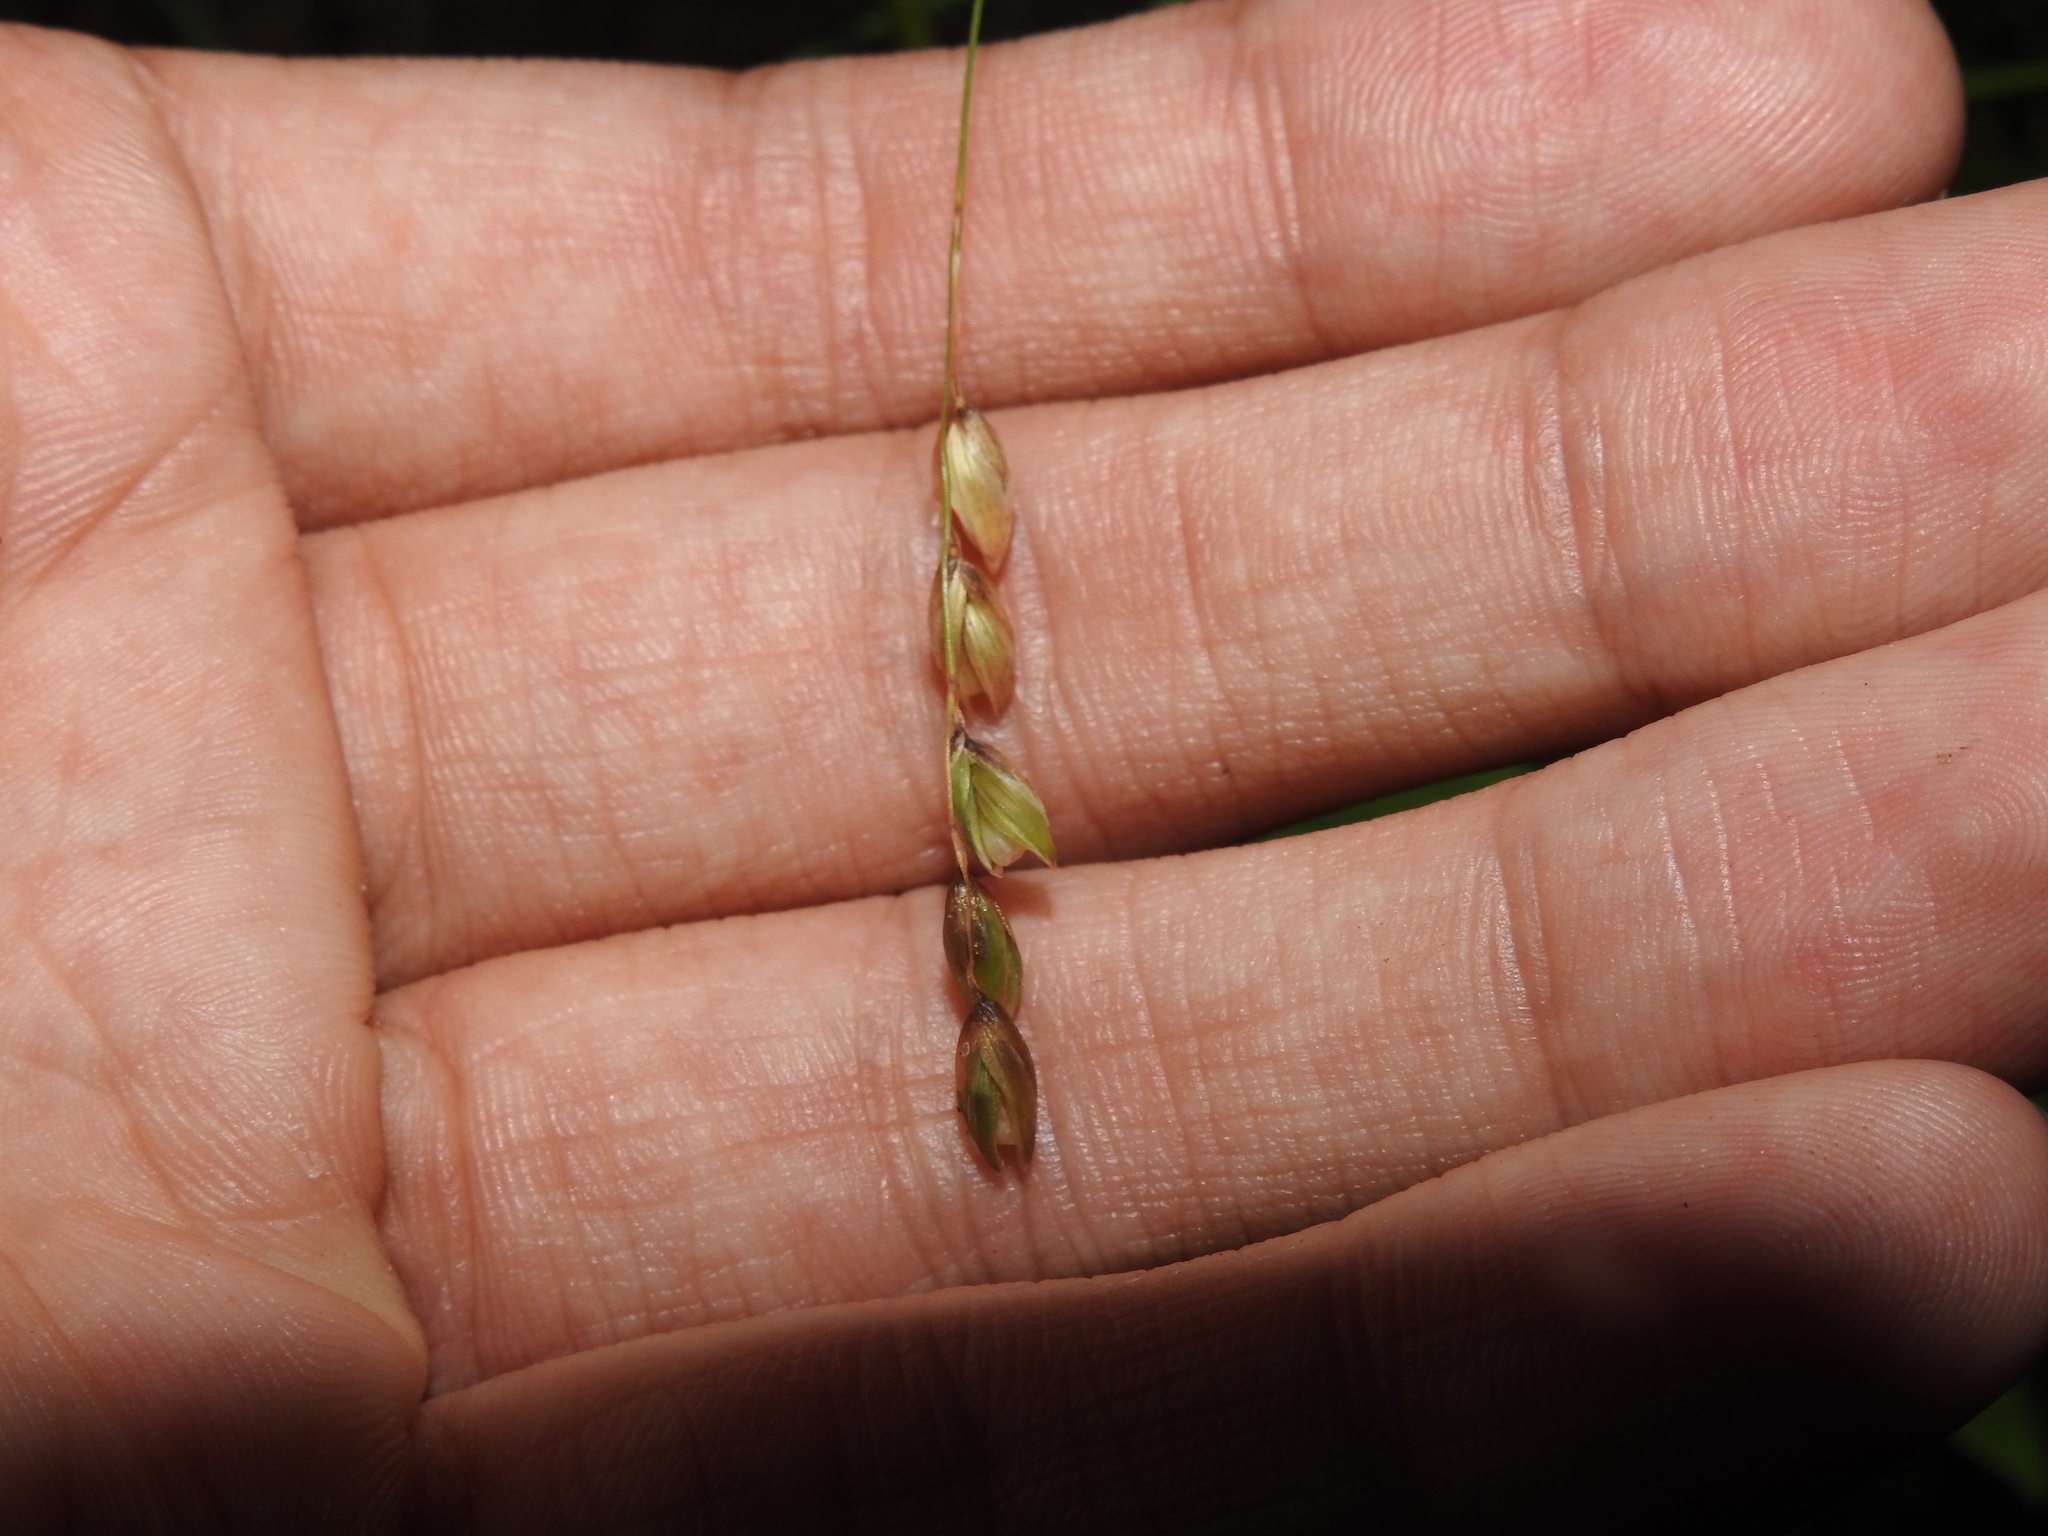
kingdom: Plantae
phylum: Tracheophyta
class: Liliopsida
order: Poales
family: Poaceae
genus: Melica
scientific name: Melica nutans
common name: Mountain melick
